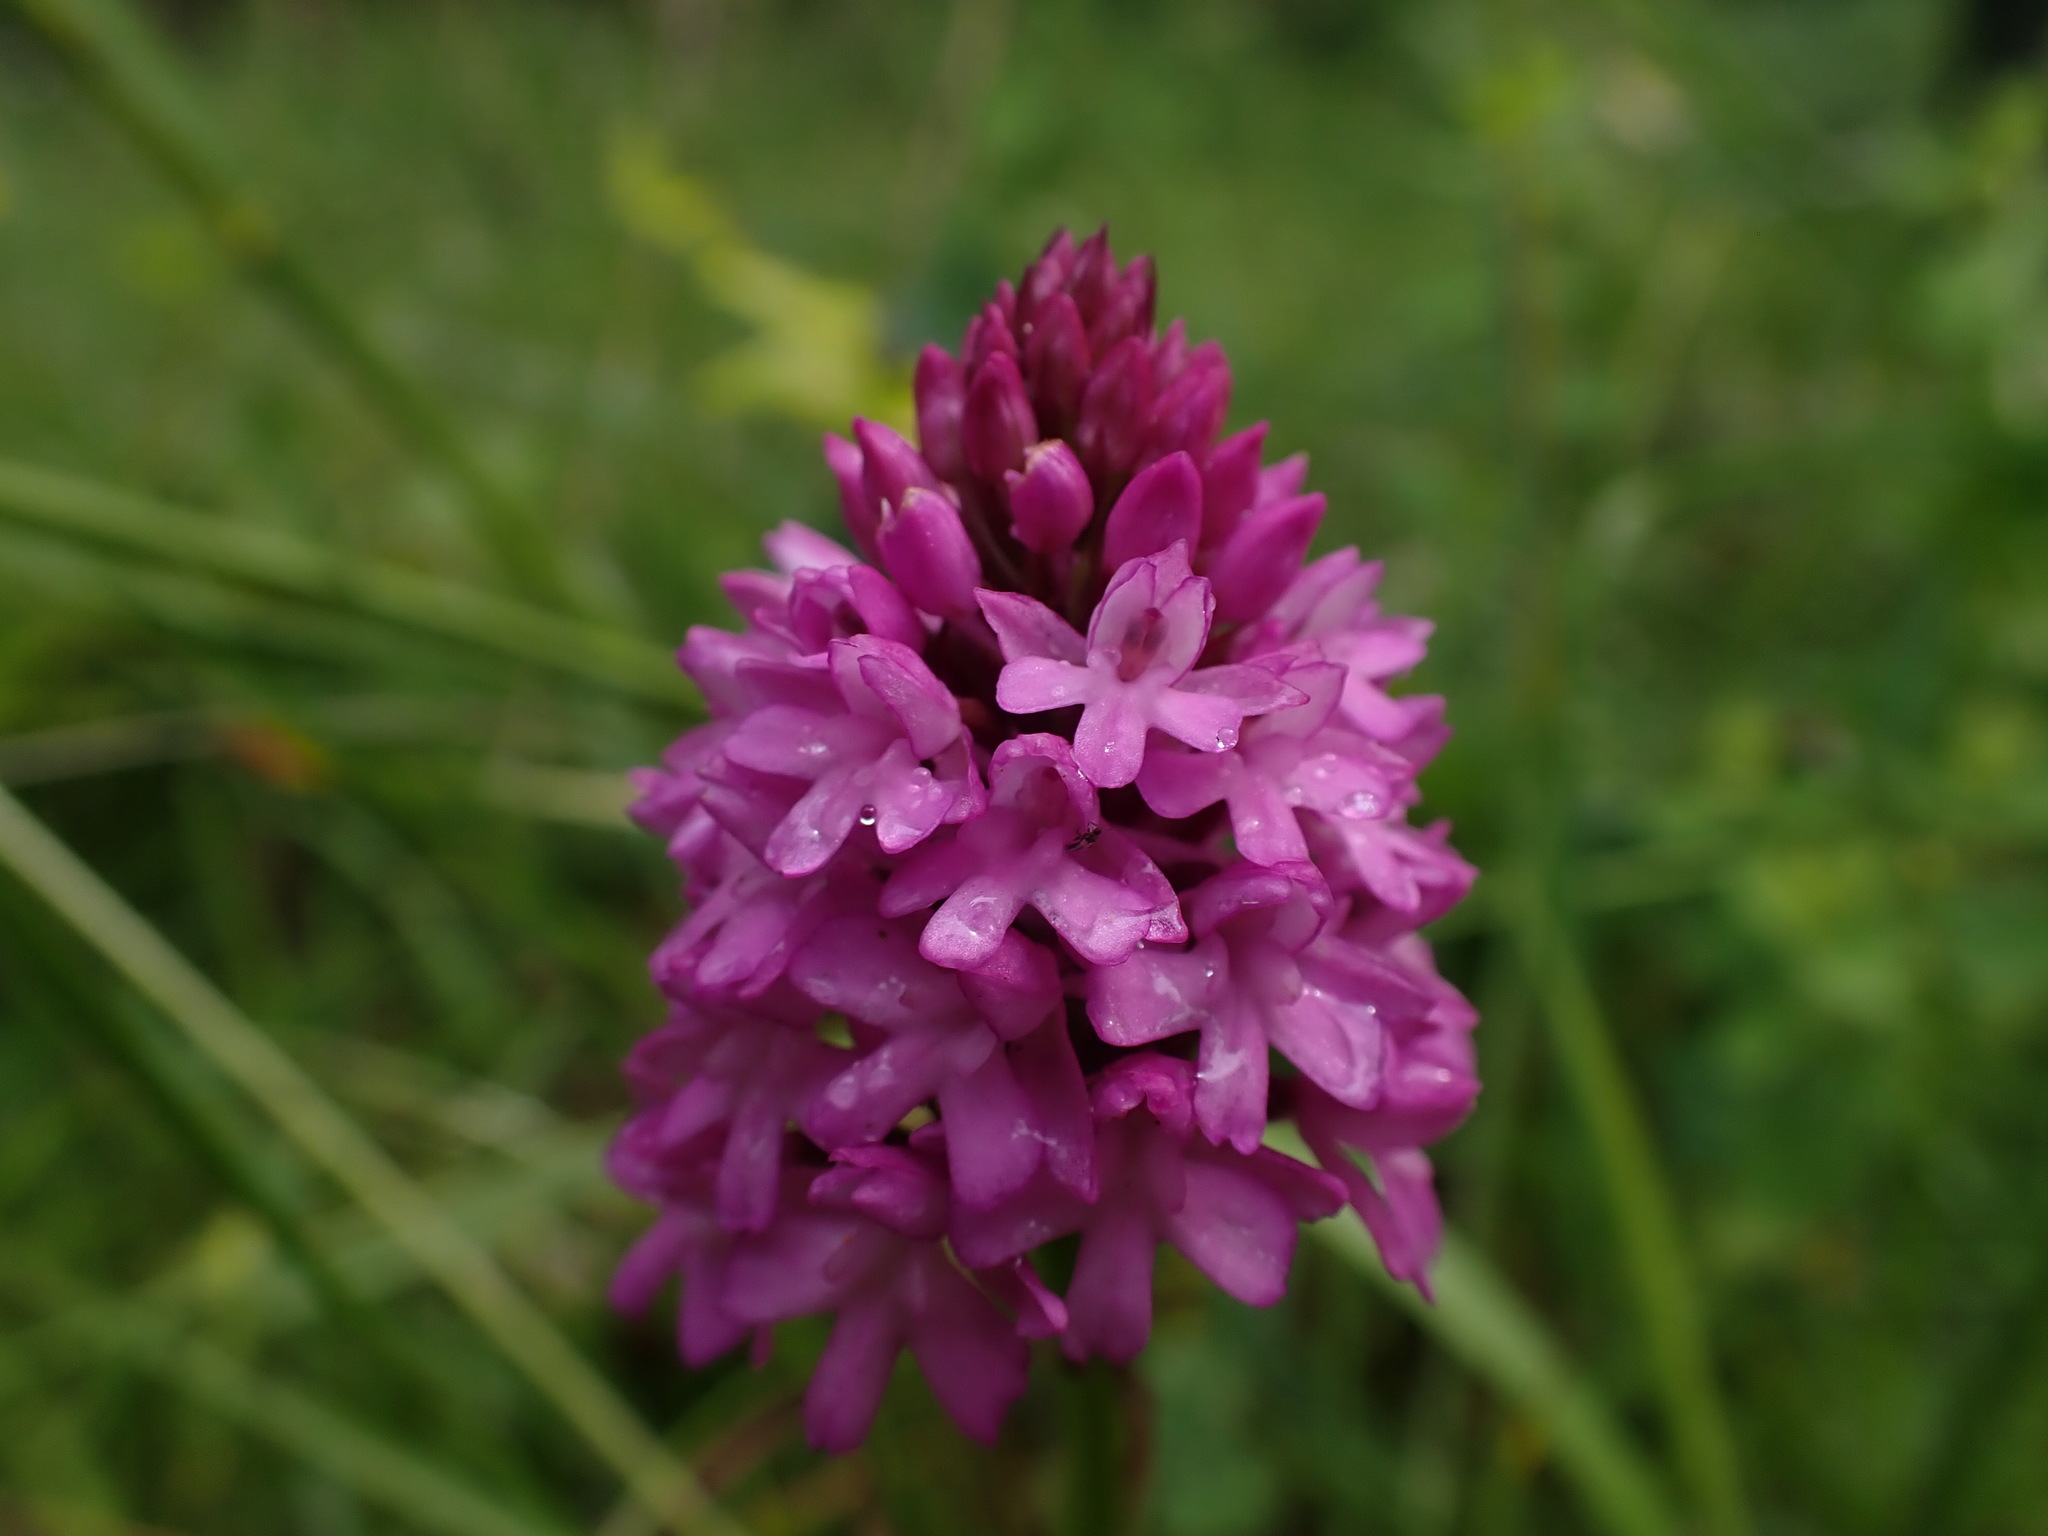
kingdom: Plantae
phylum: Tracheophyta
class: Liliopsida
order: Asparagales
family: Orchidaceae
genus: Anacamptis
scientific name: Anacamptis pyramidalis
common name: Pyramidal orchid
